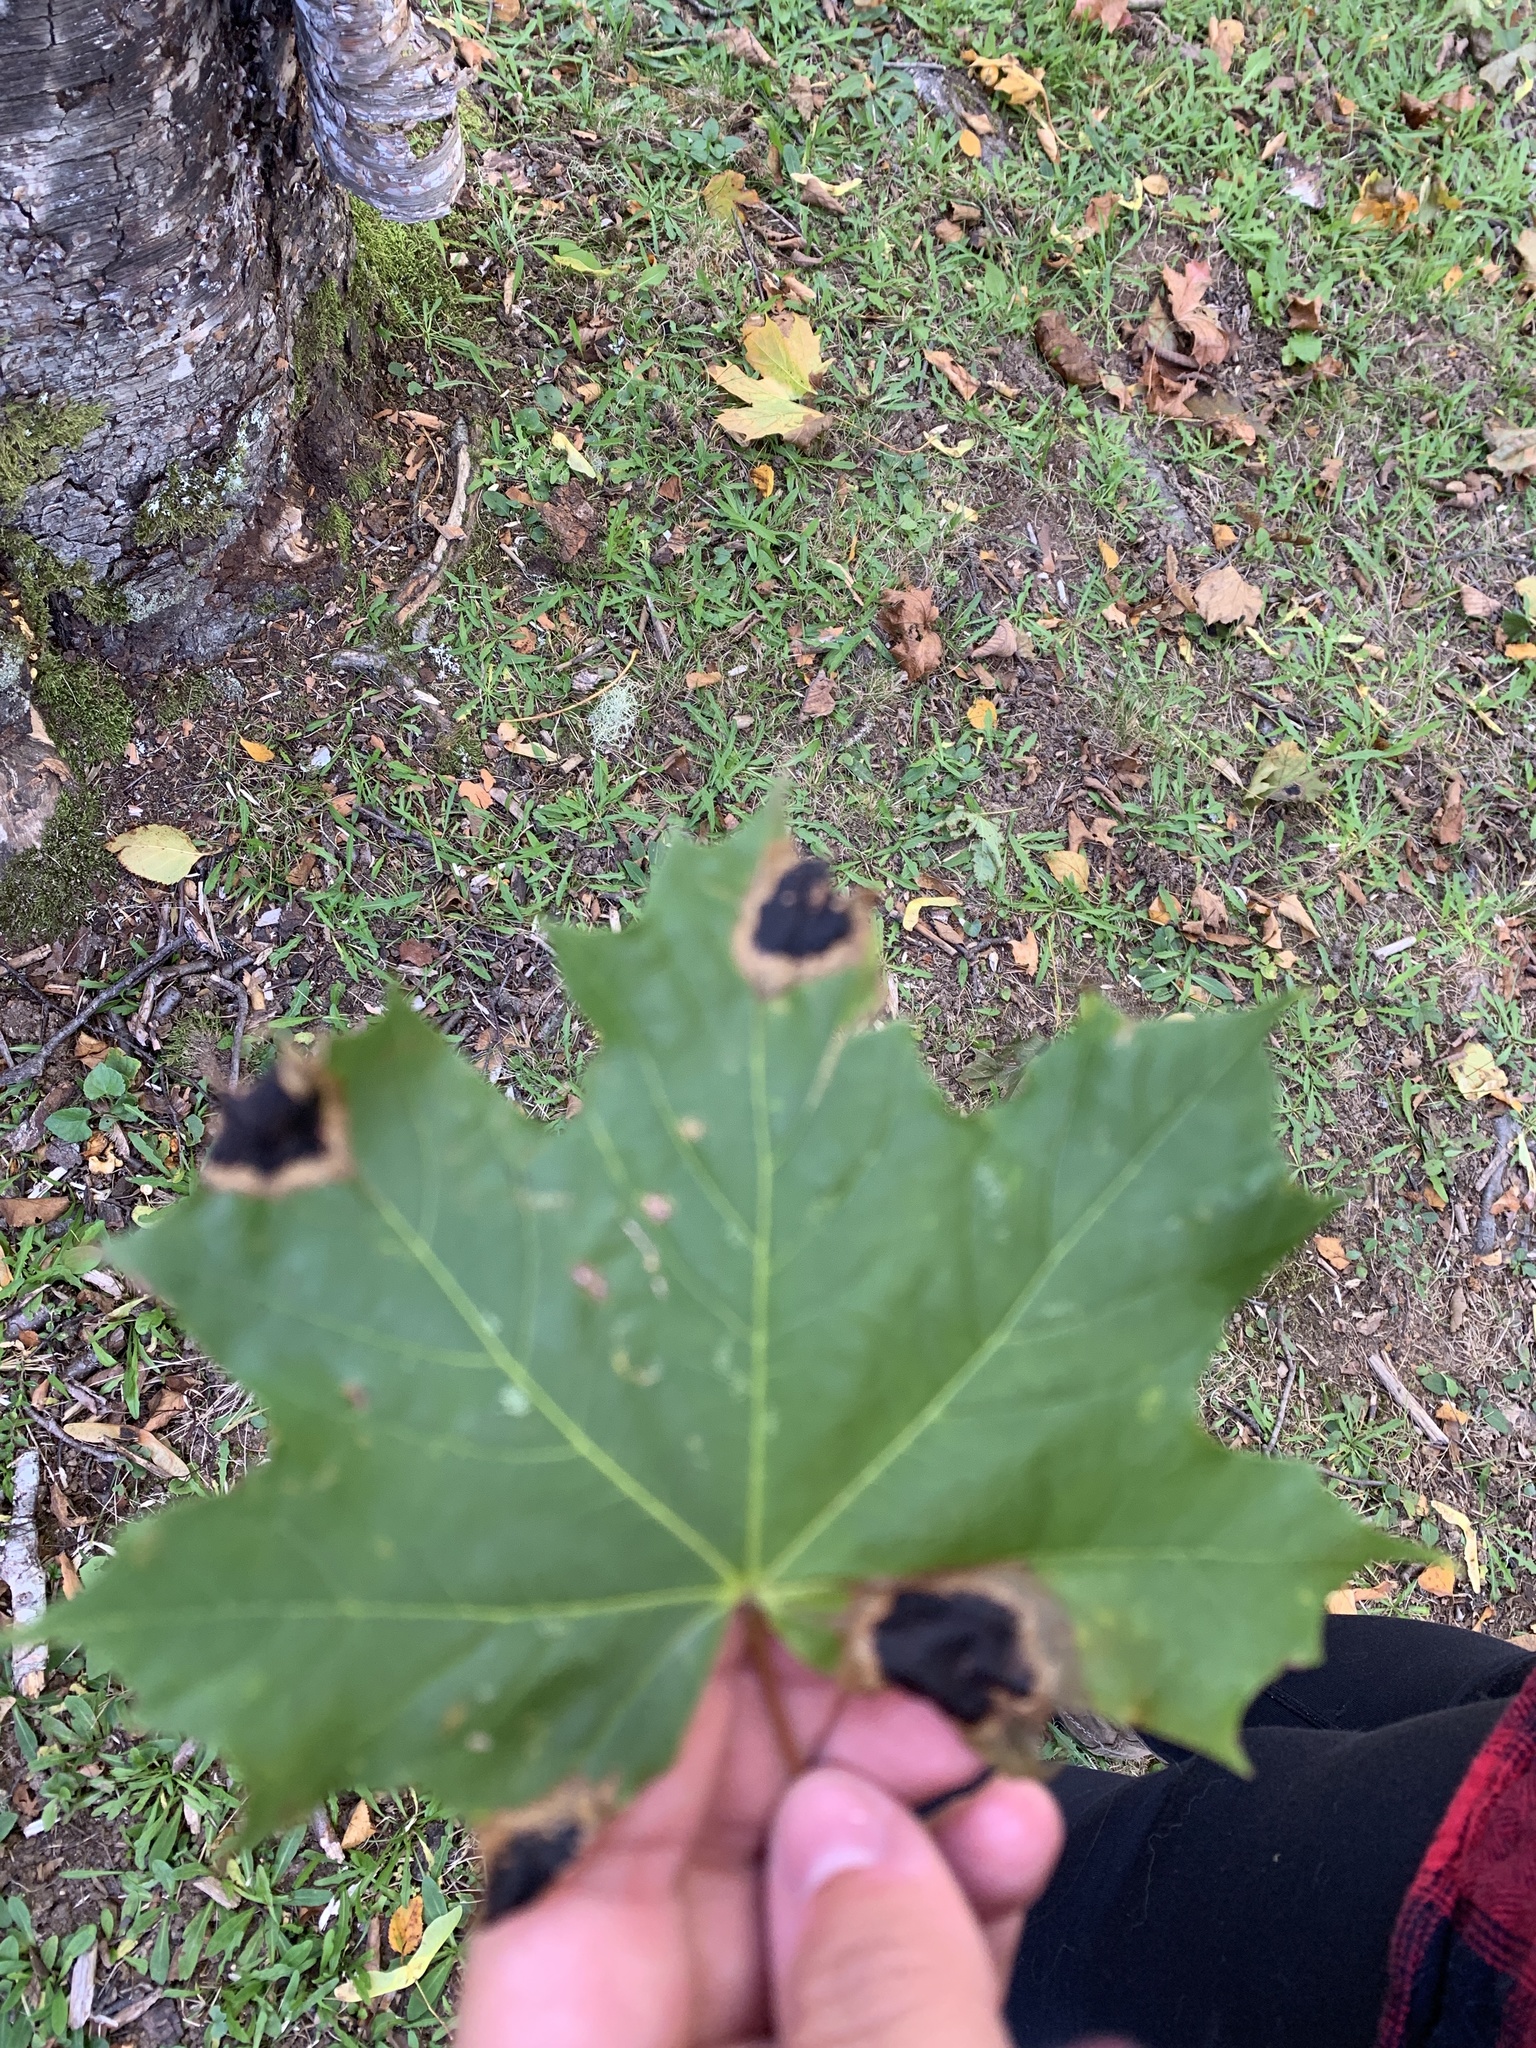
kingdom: Plantae
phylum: Tracheophyta
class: Magnoliopsida
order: Sapindales
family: Sapindaceae
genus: Acer
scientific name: Acer platanoides
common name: Norway maple
